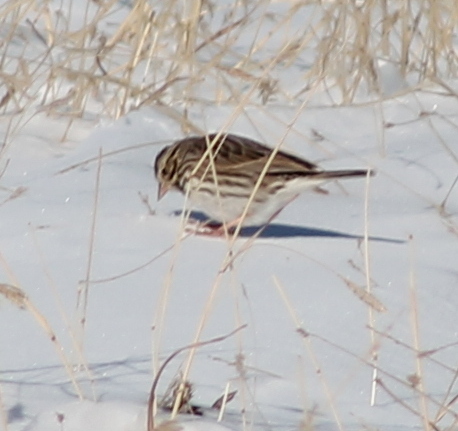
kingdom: Animalia
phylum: Chordata
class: Aves
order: Passeriformes
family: Passerellidae
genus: Passerculus
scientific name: Passerculus sandwichensis
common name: Savannah sparrow
